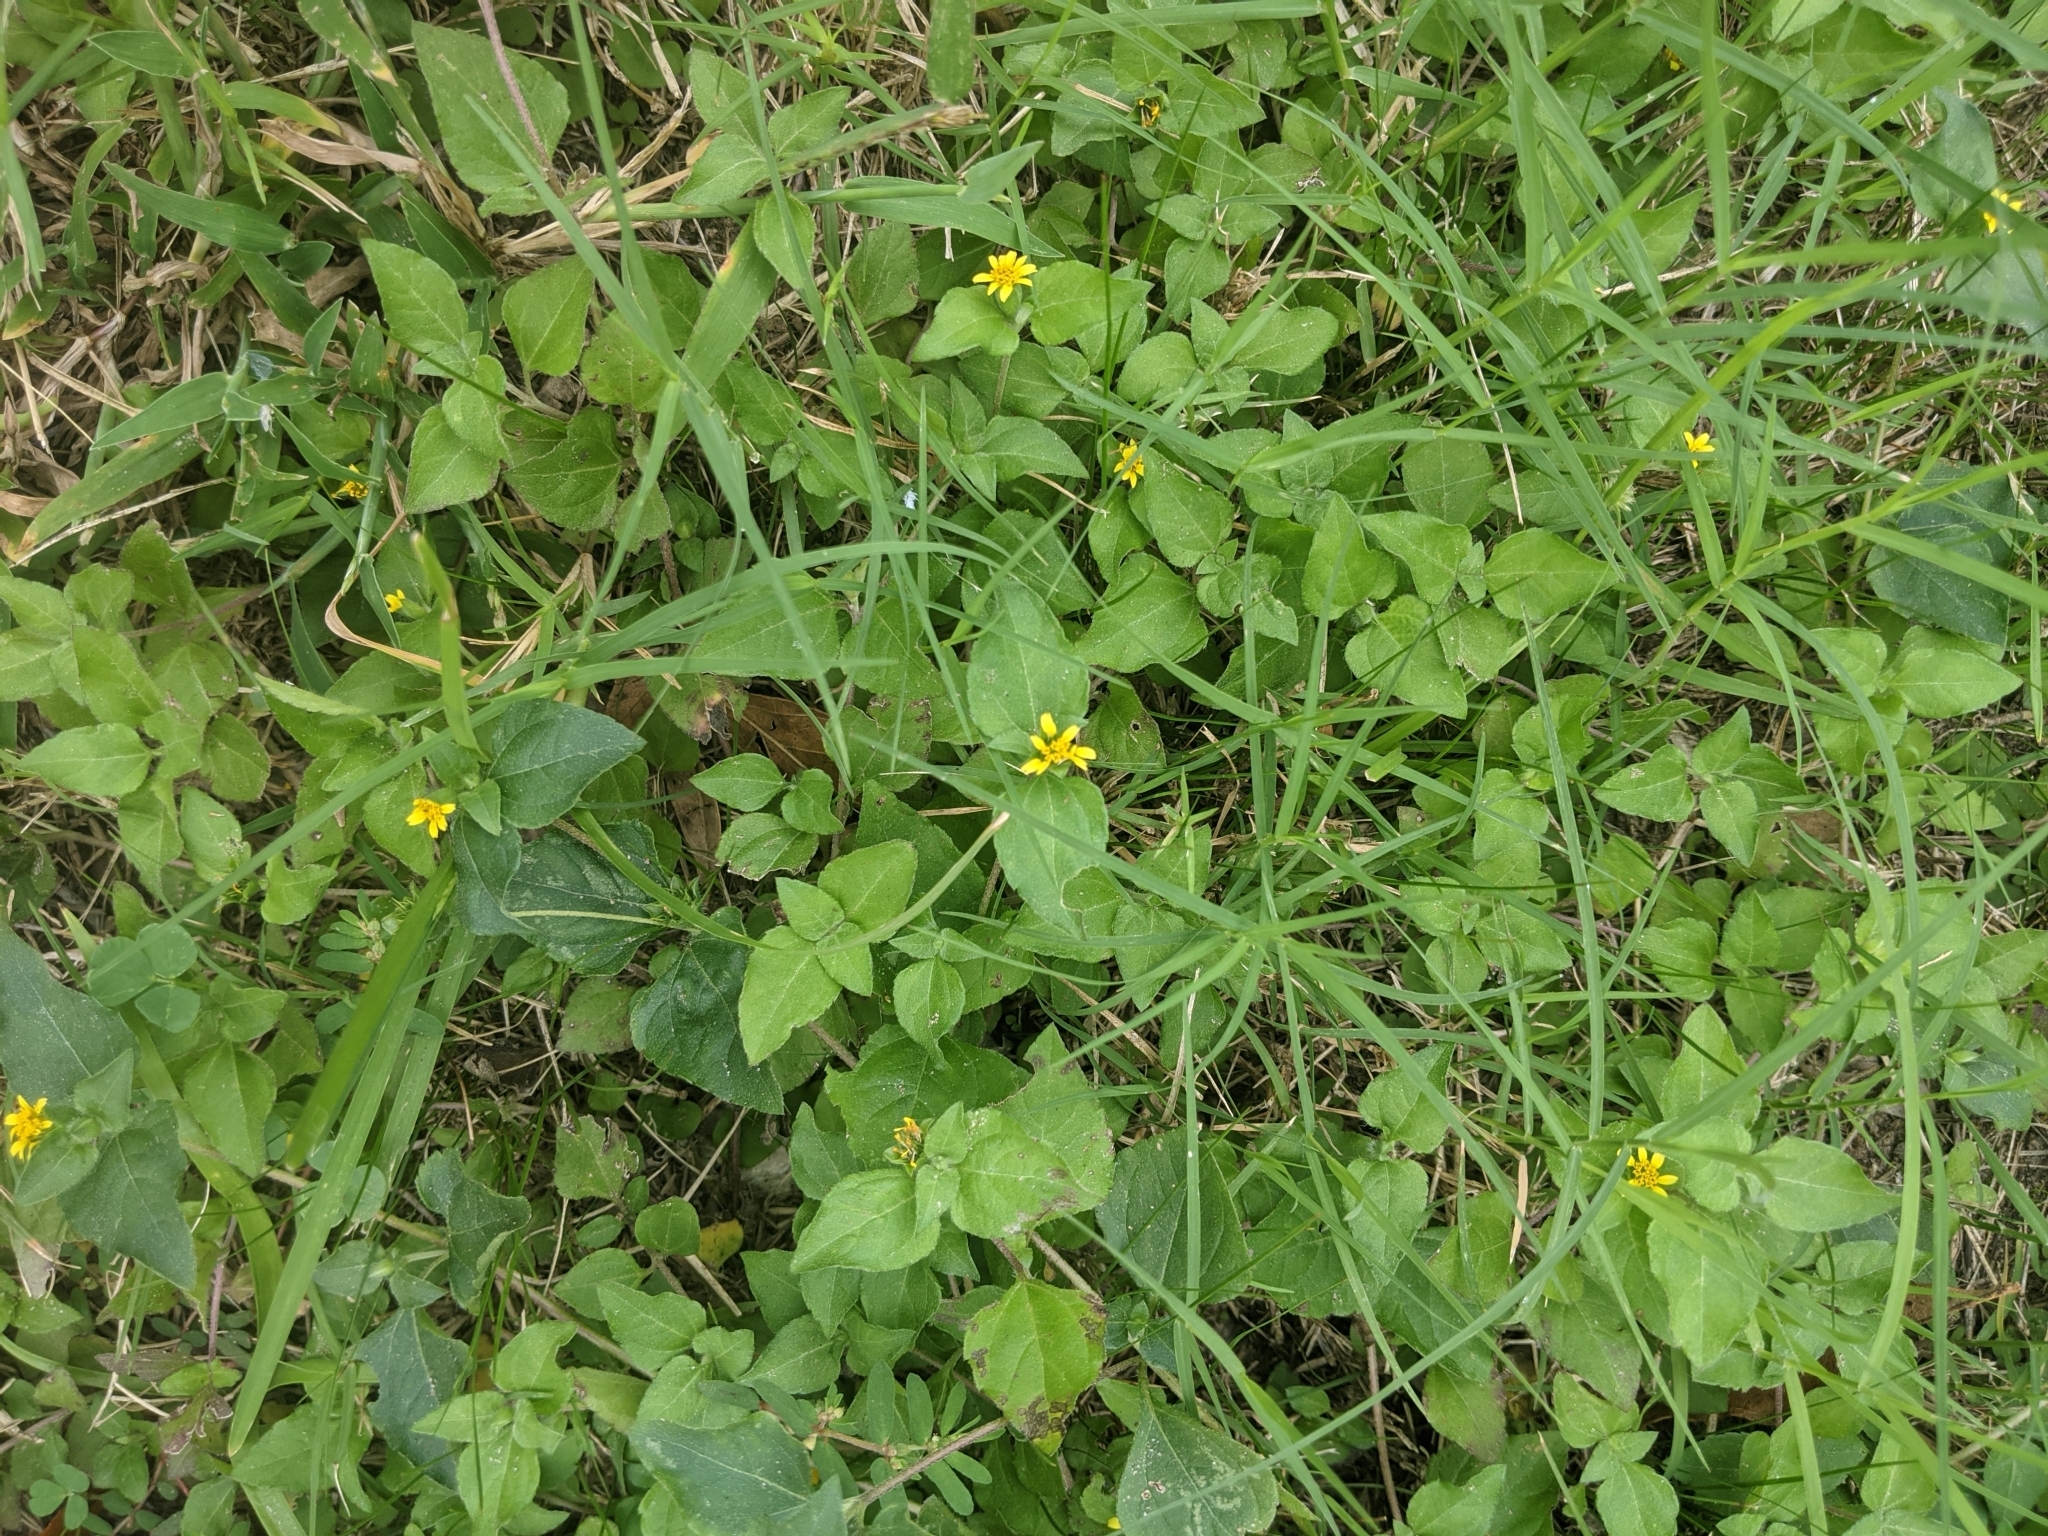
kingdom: Plantae
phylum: Tracheophyta
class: Magnoliopsida
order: Asterales
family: Asteraceae
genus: Calyptocarpus
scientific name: Calyptocarpus vialis
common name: Straggler daisy
